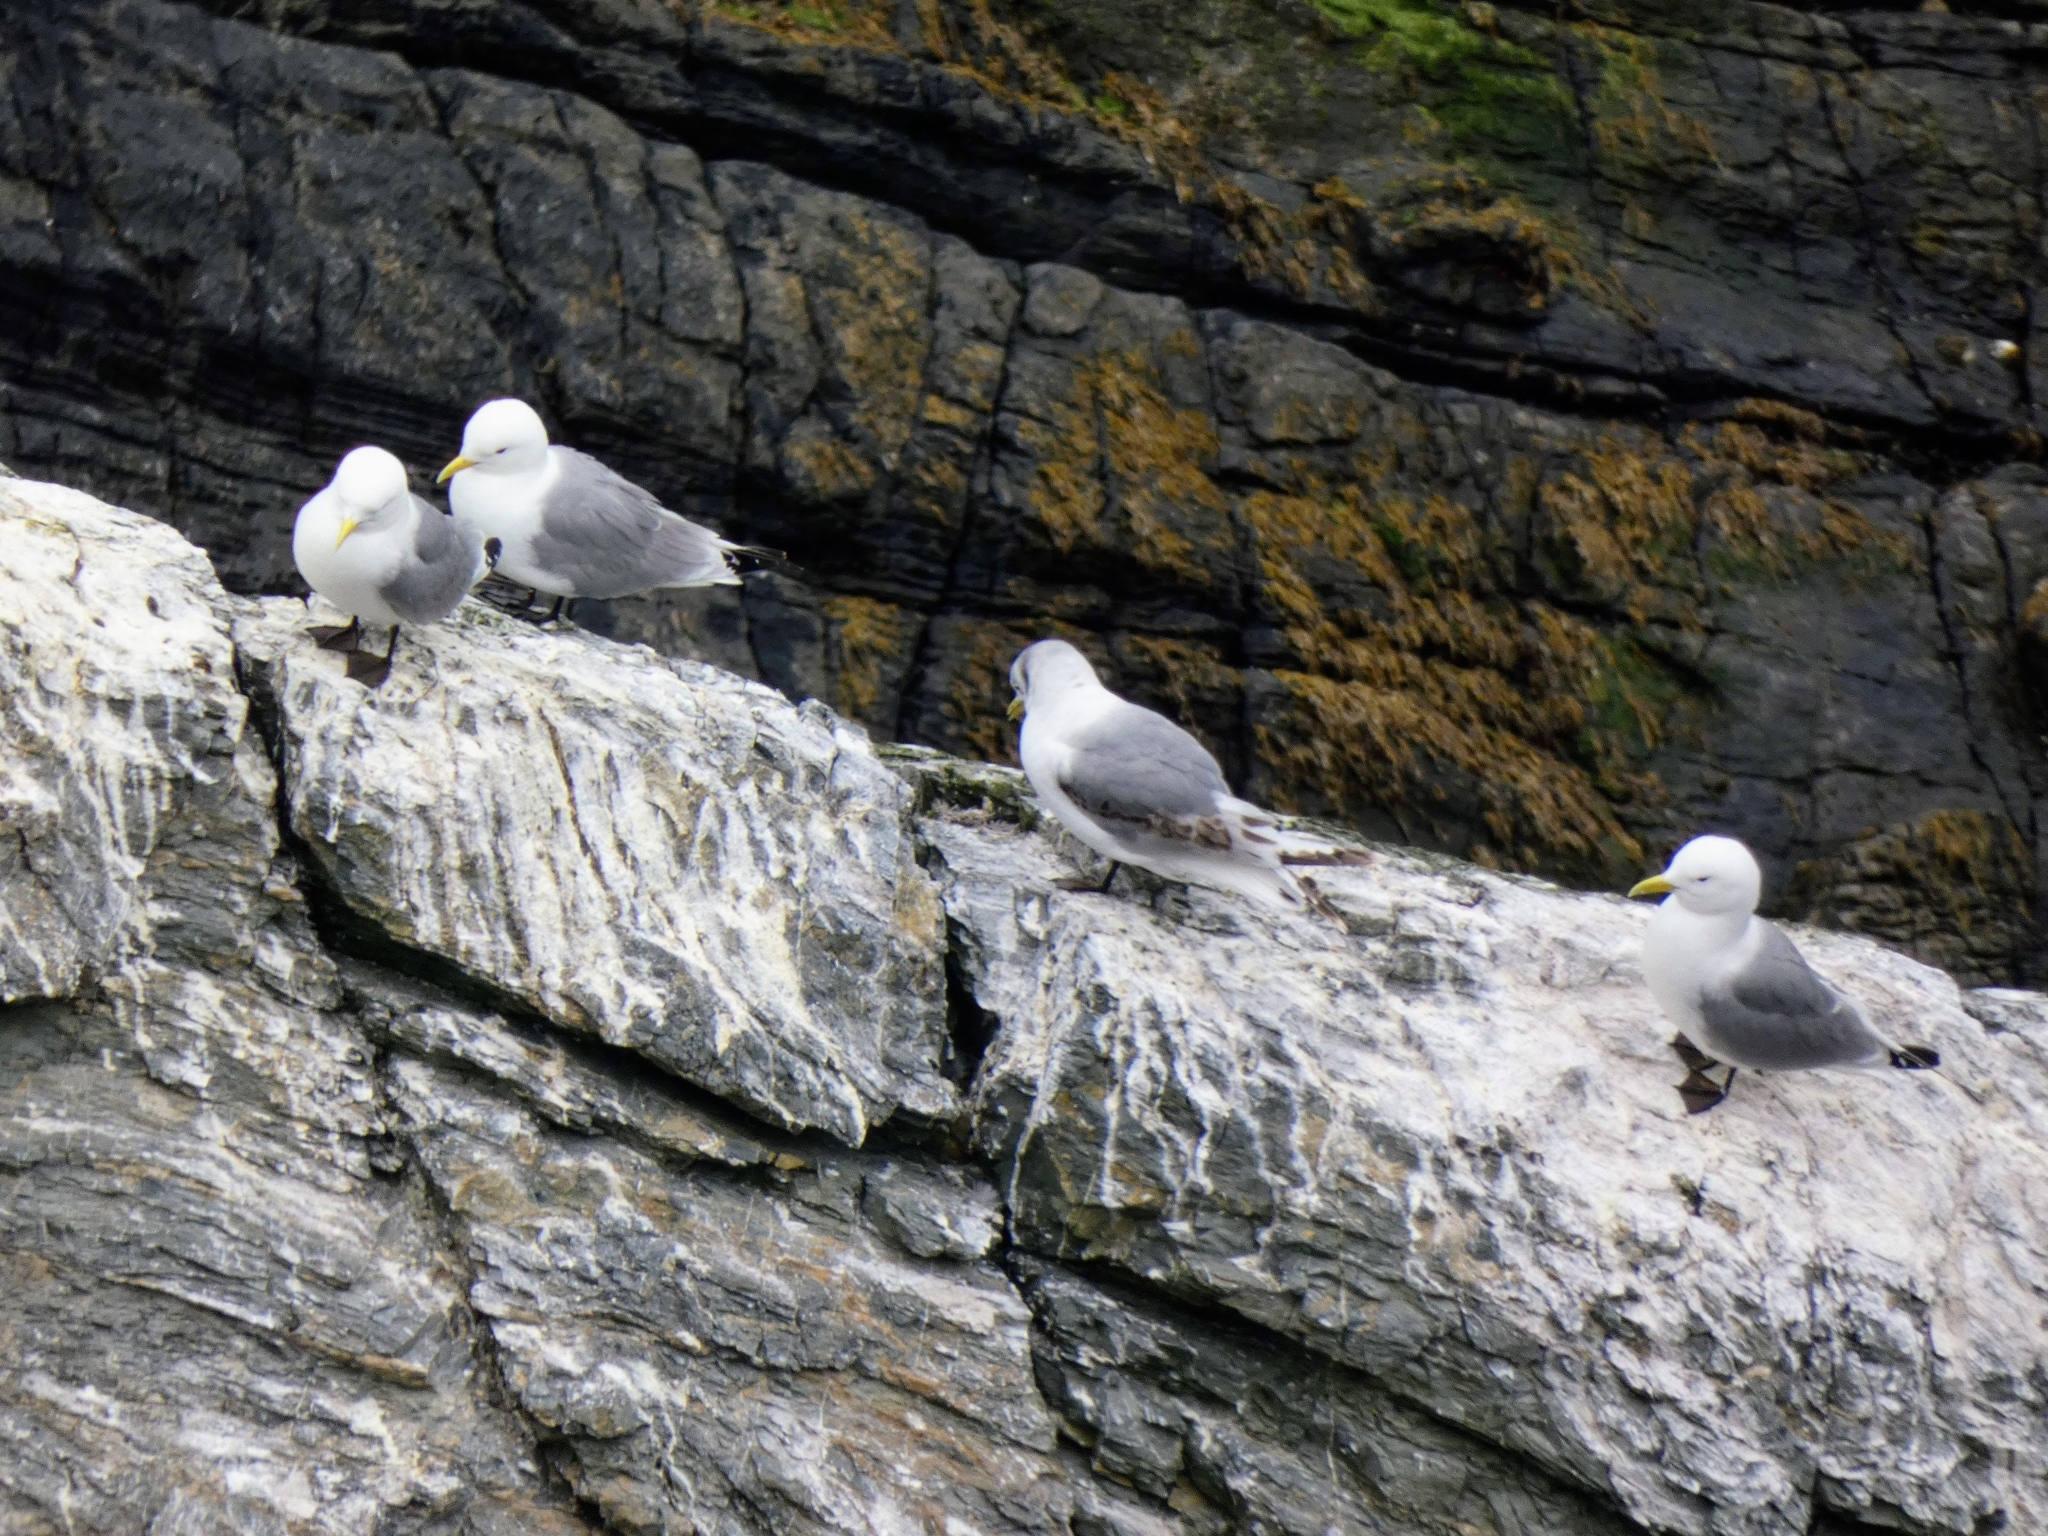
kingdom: Animalia
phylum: Chordata
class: Aves
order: Charadriiformes
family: Laridae
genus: Rissa
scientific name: Rissa tridactyla
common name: Black-legged kittiwake
